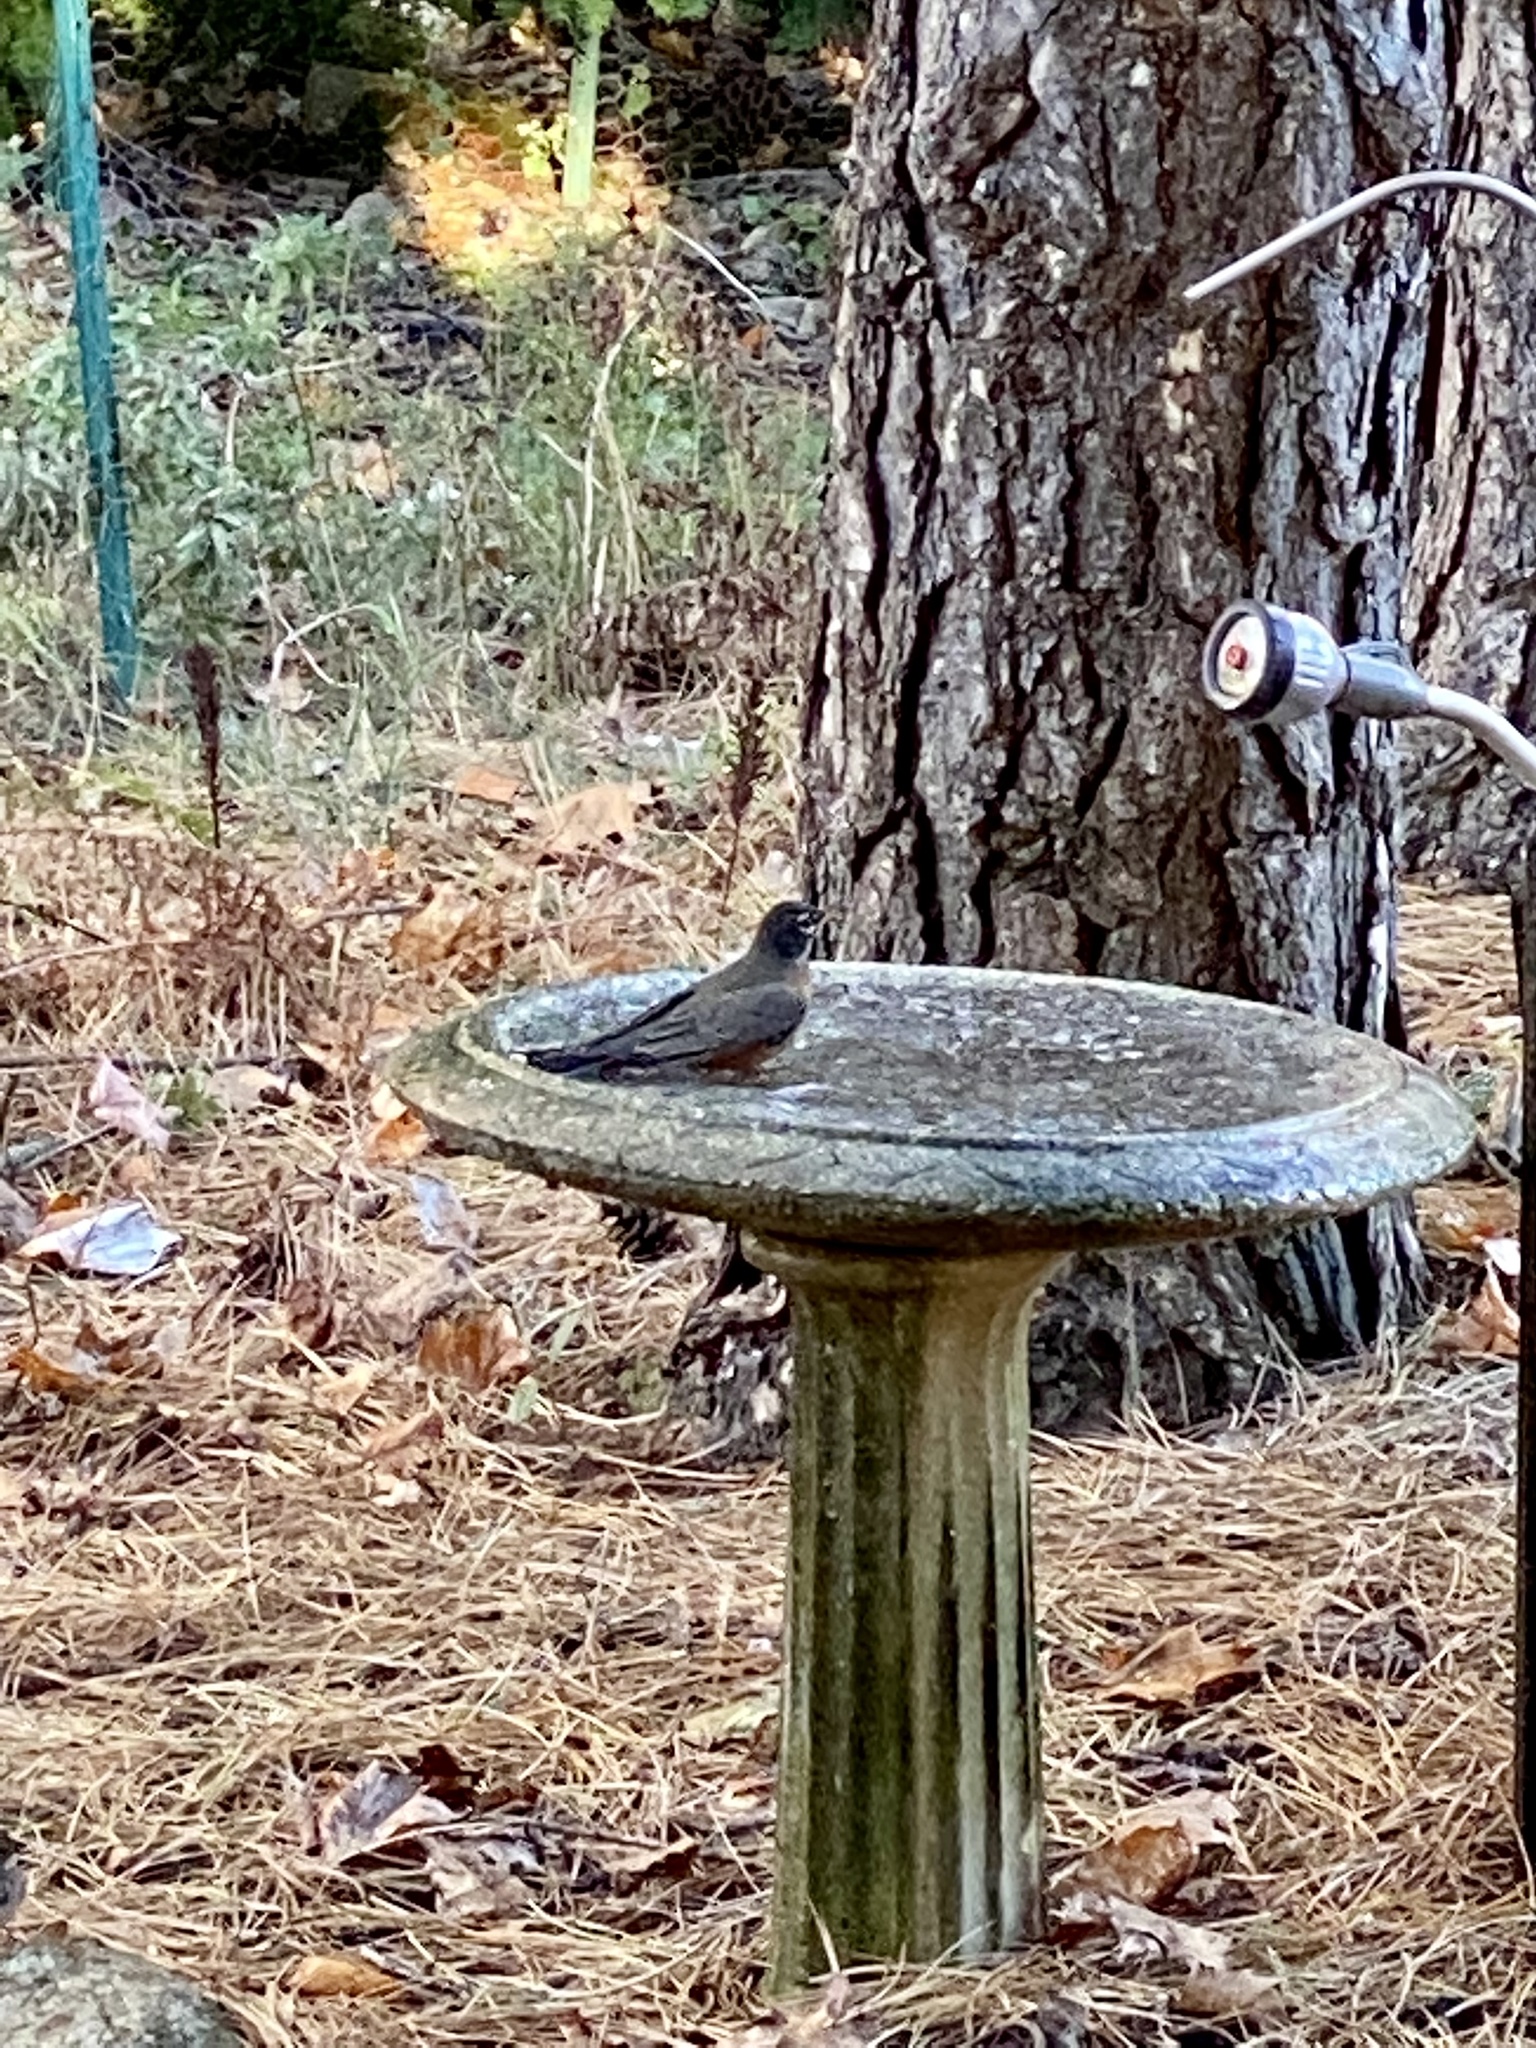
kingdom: Animalia
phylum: Chordata
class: Aves
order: Passeriformes
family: Turdidae
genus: Turdus
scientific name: Turdus migratorius
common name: American robin
